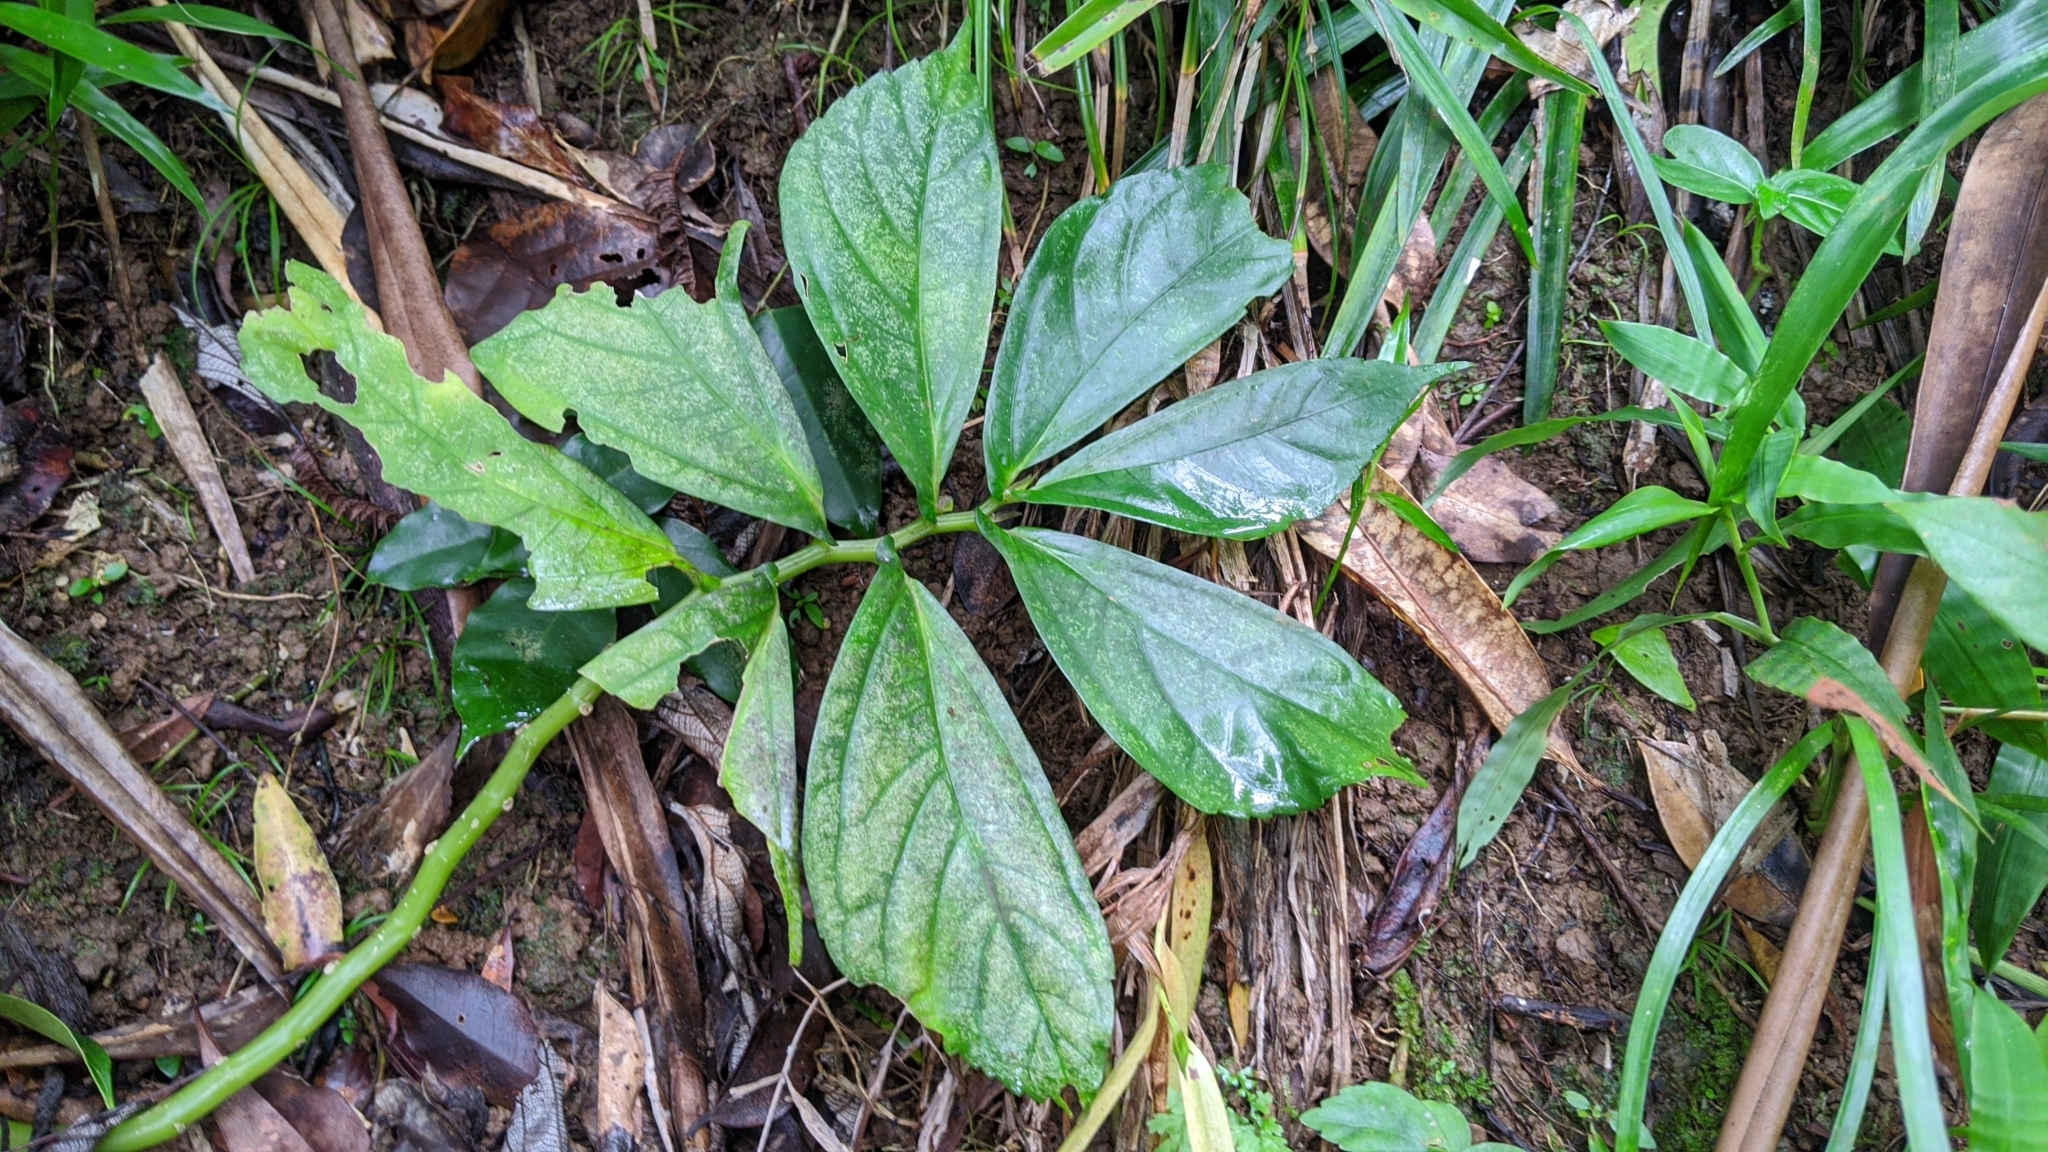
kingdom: Plantae
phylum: Tracheophyta
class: Magnoliopsida
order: Rosales
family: Urticaceae
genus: Elatostema
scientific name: Elatostema platyphyllum
